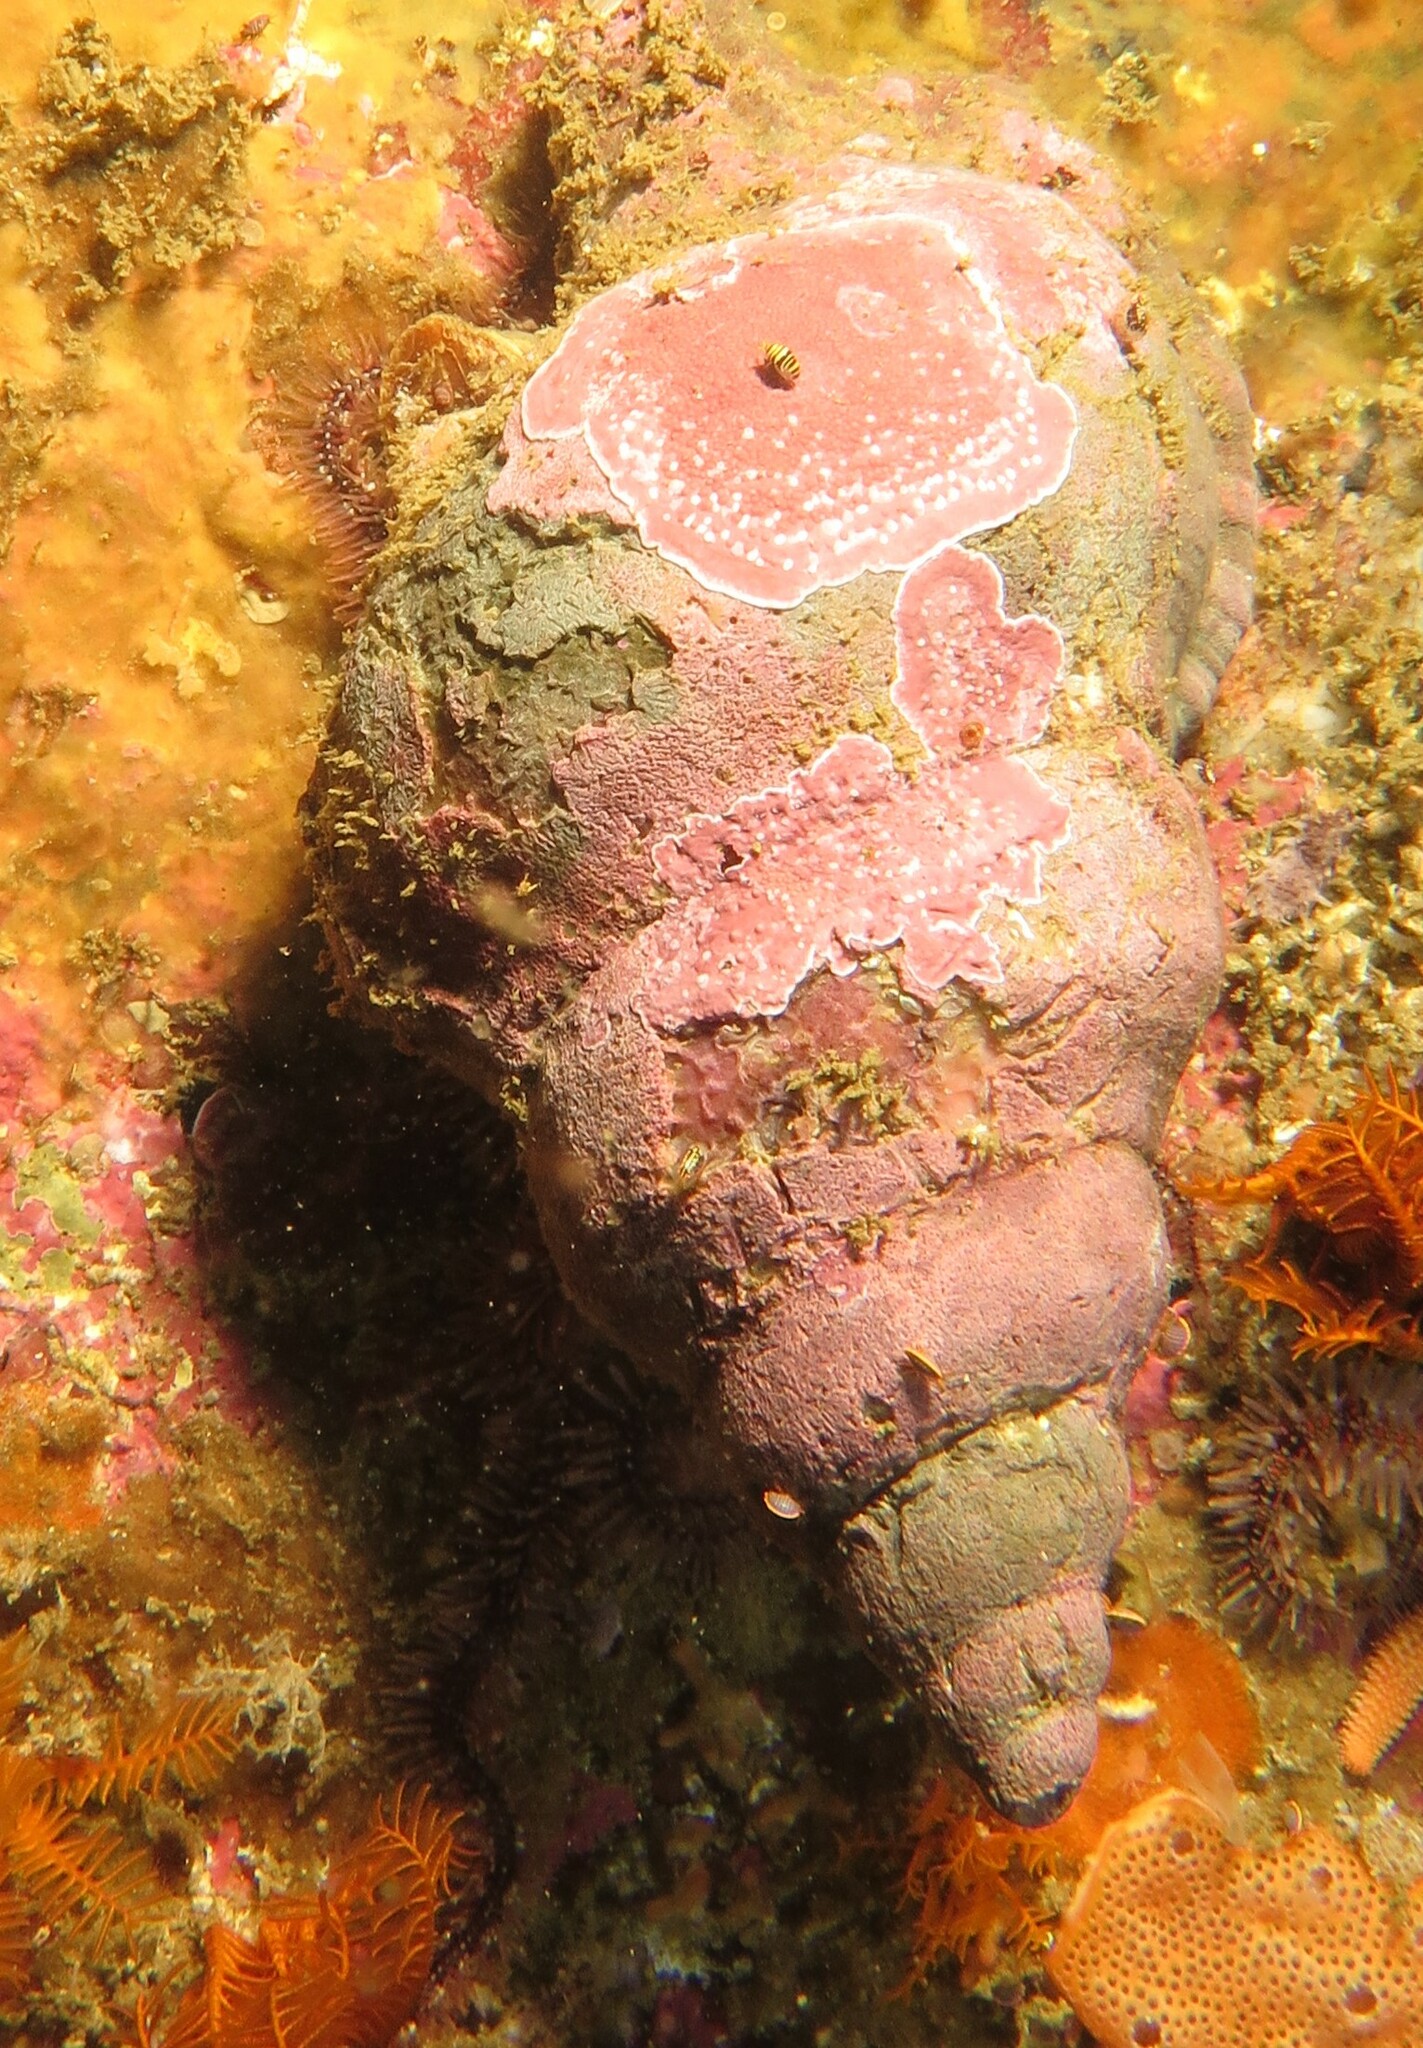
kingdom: Animalia
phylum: Mollusca
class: Gastropoda
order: Littorinimorpha
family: Charoniidae
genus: Charonia
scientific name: Charonia lampas
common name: Knobbed triton
